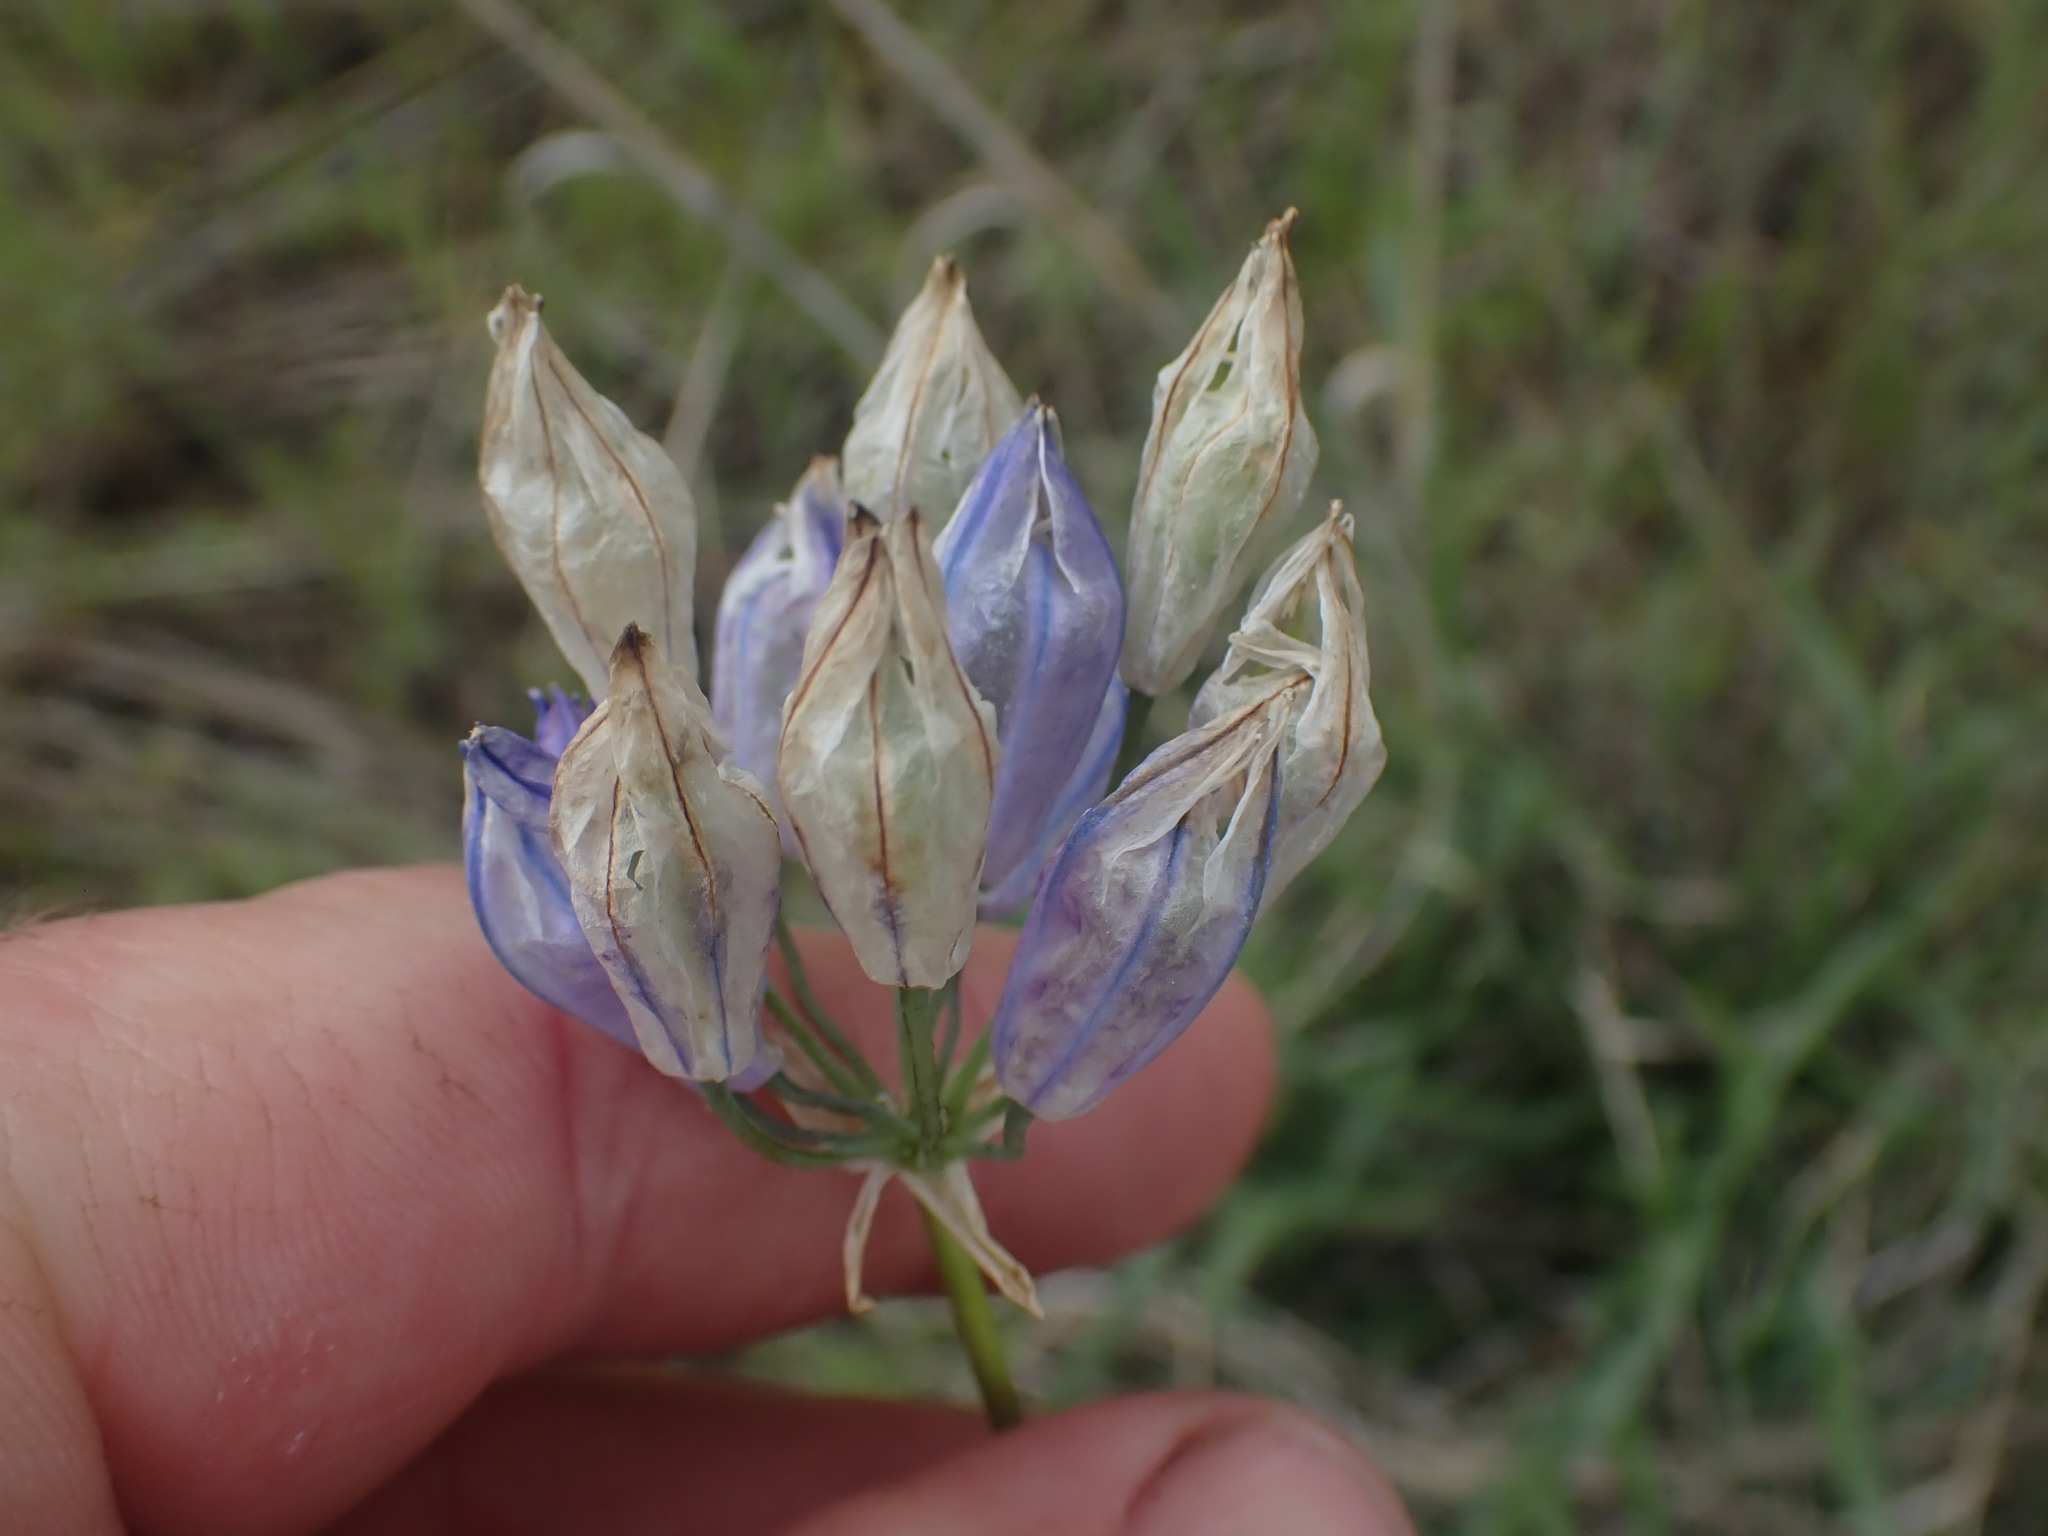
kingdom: Plantae
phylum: Tracheophyta
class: Liliopsida
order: Asparagales
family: Asparagaceae
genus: Triteleia
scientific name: Triteleia grandiflora
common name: Wild hyacinth
